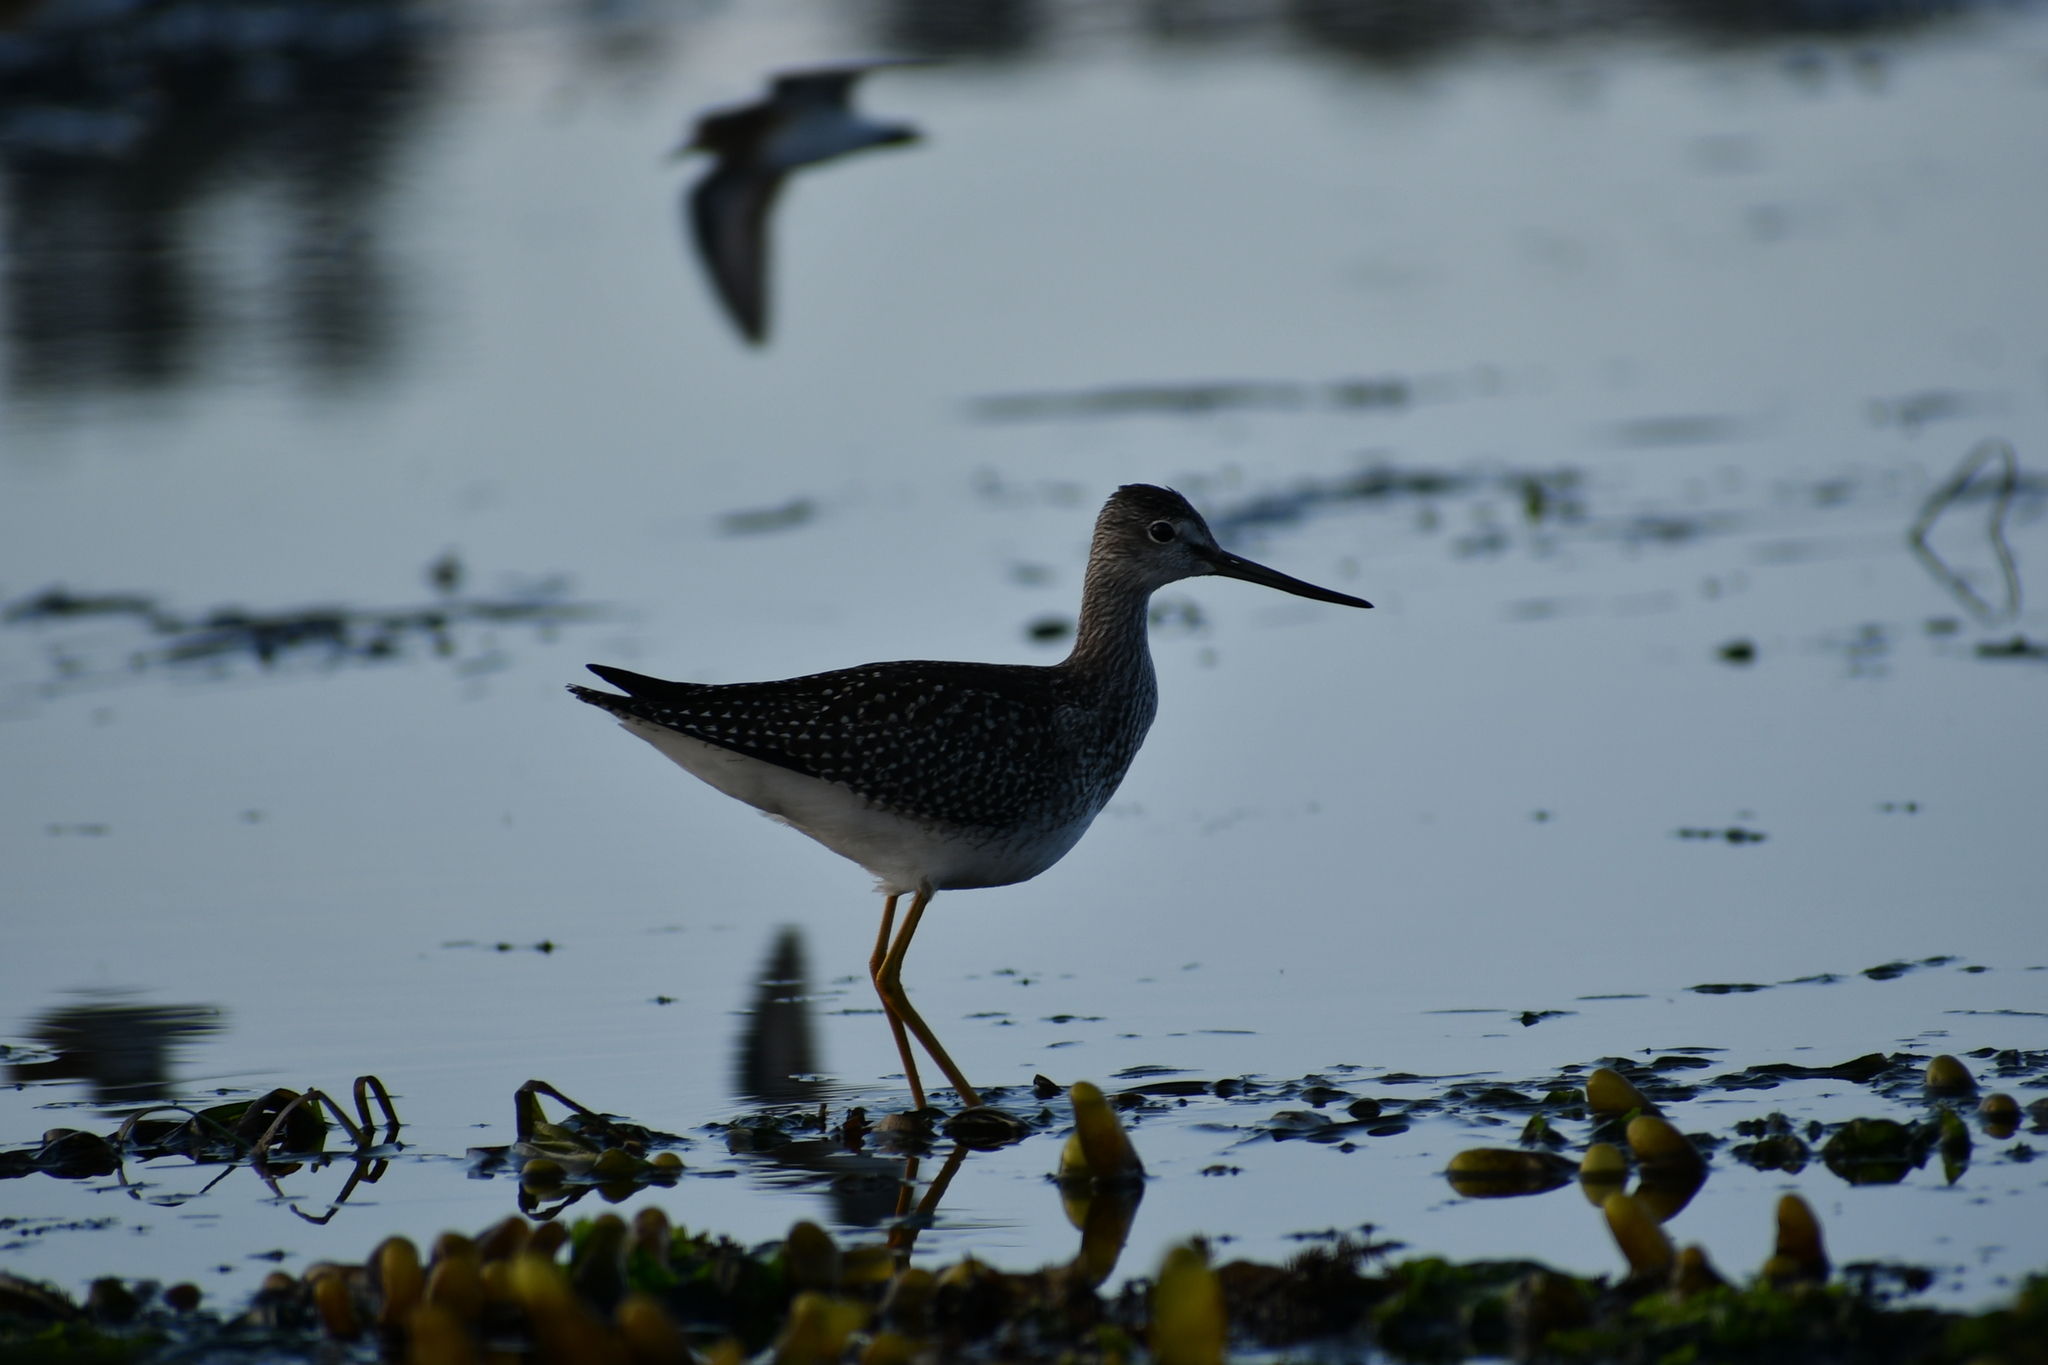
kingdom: Animalia
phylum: Chordata
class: Aves
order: Charadriiformes
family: Scolopacidae
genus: Tringa
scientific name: Tringa melanoleuca
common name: Greater yellowlegs
